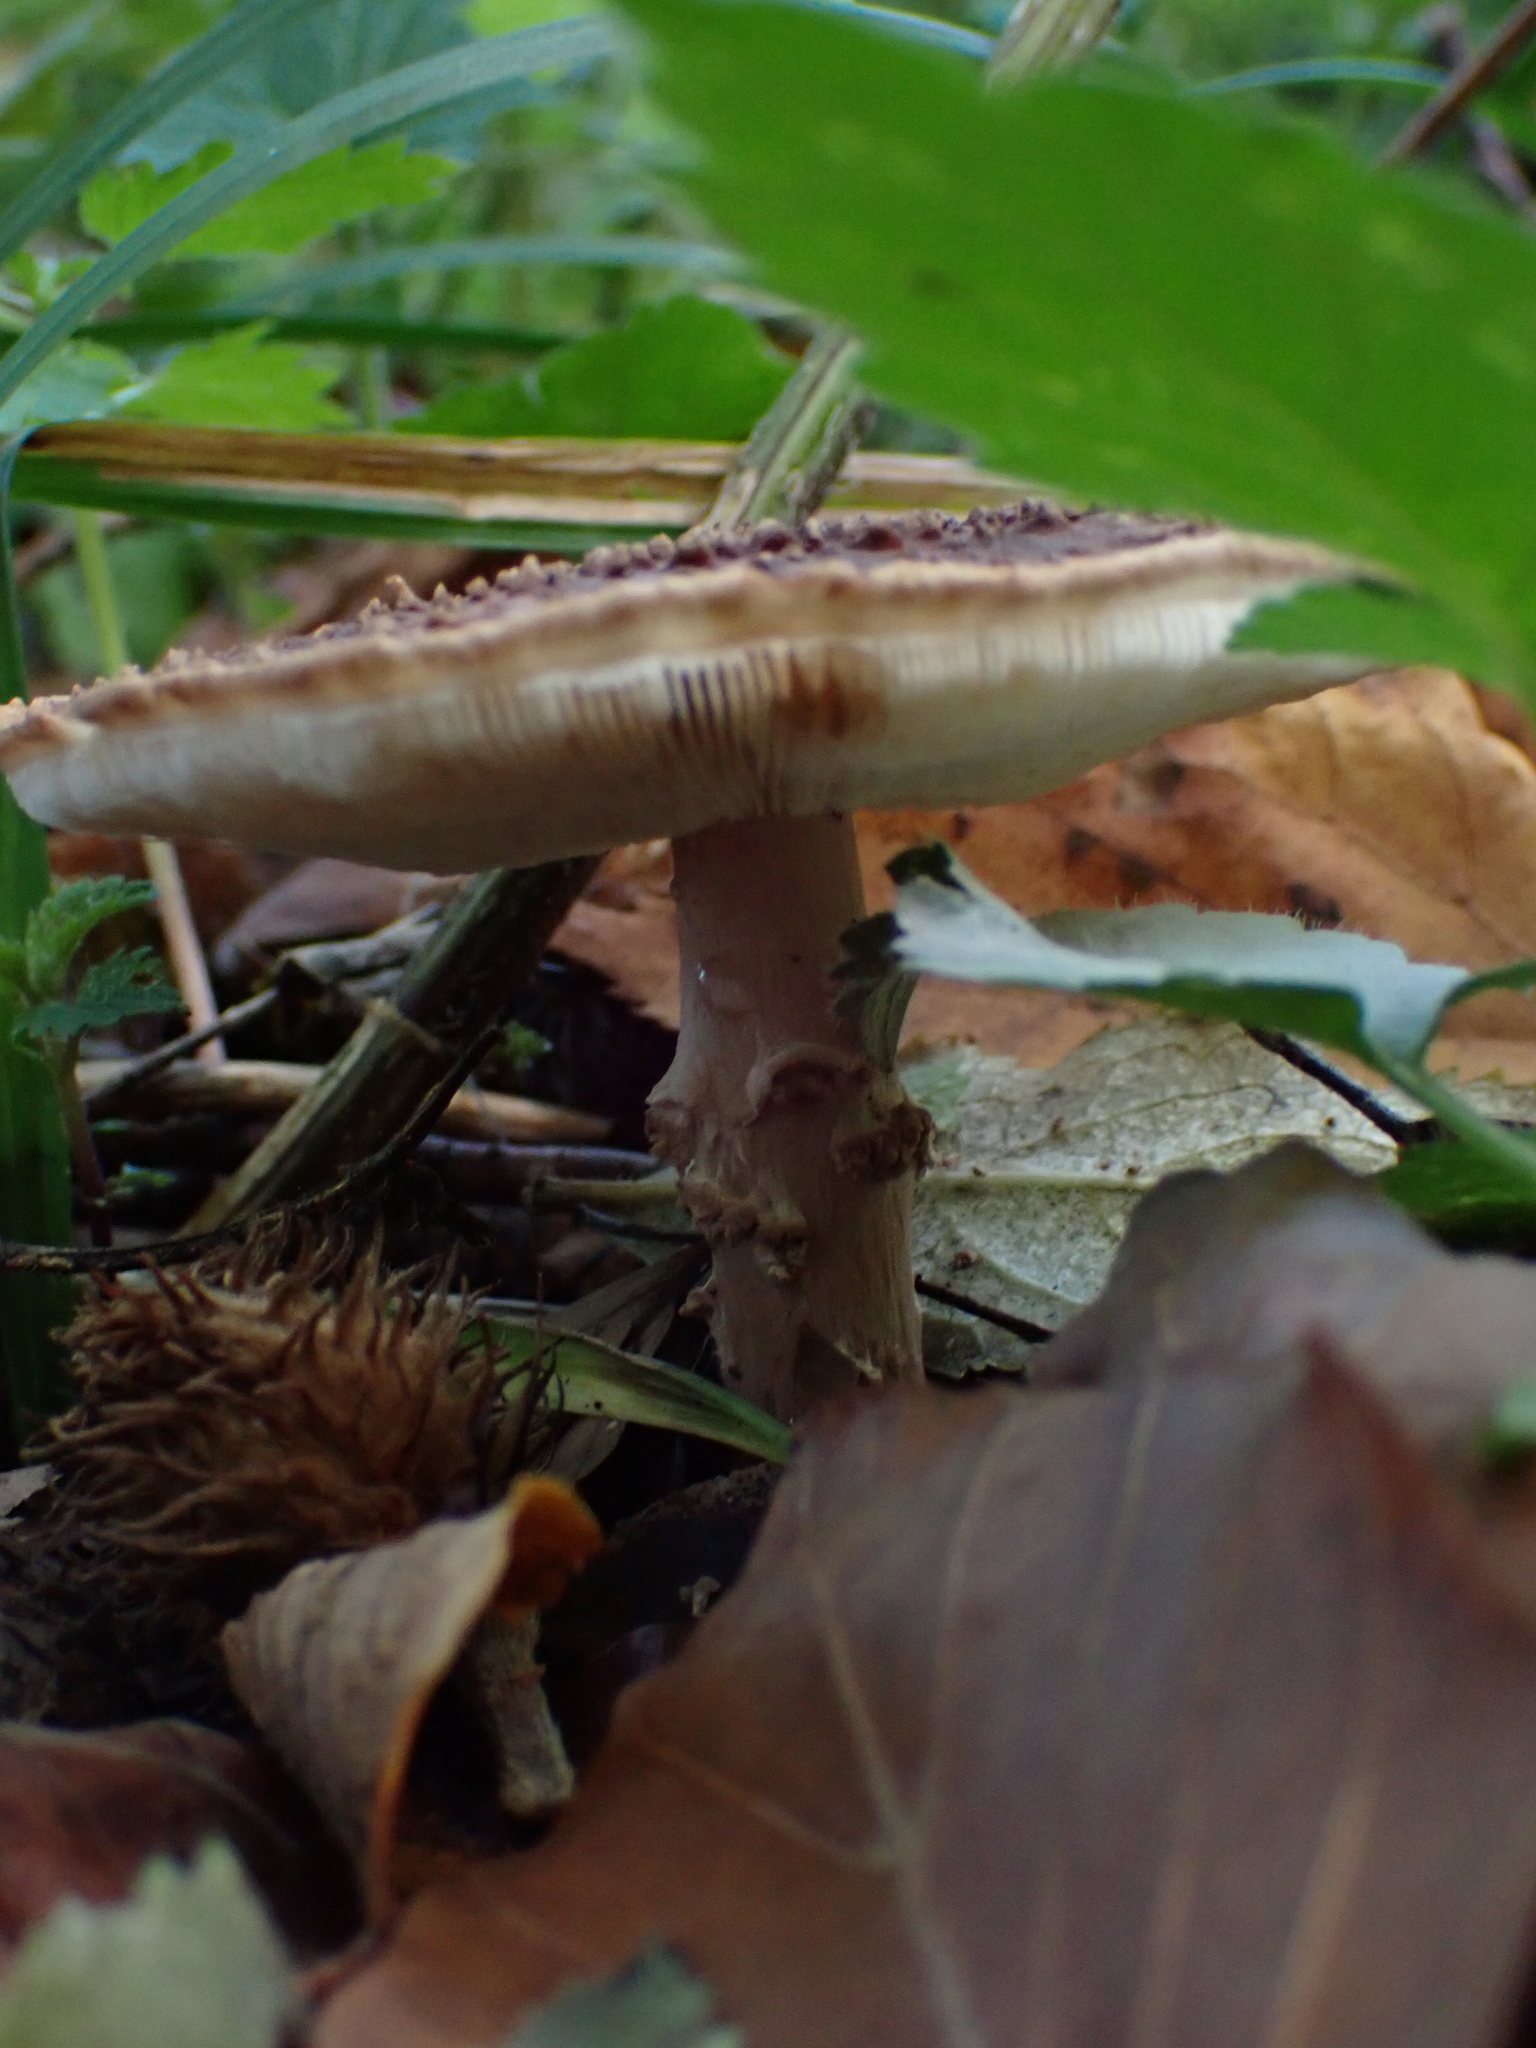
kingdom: Fungi
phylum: Basidiomycota
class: Agaricomycetes
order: Agaricales
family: Agaricaceae
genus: Echinoderma
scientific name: Echinoderma asperum
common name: Freckled dapperling
